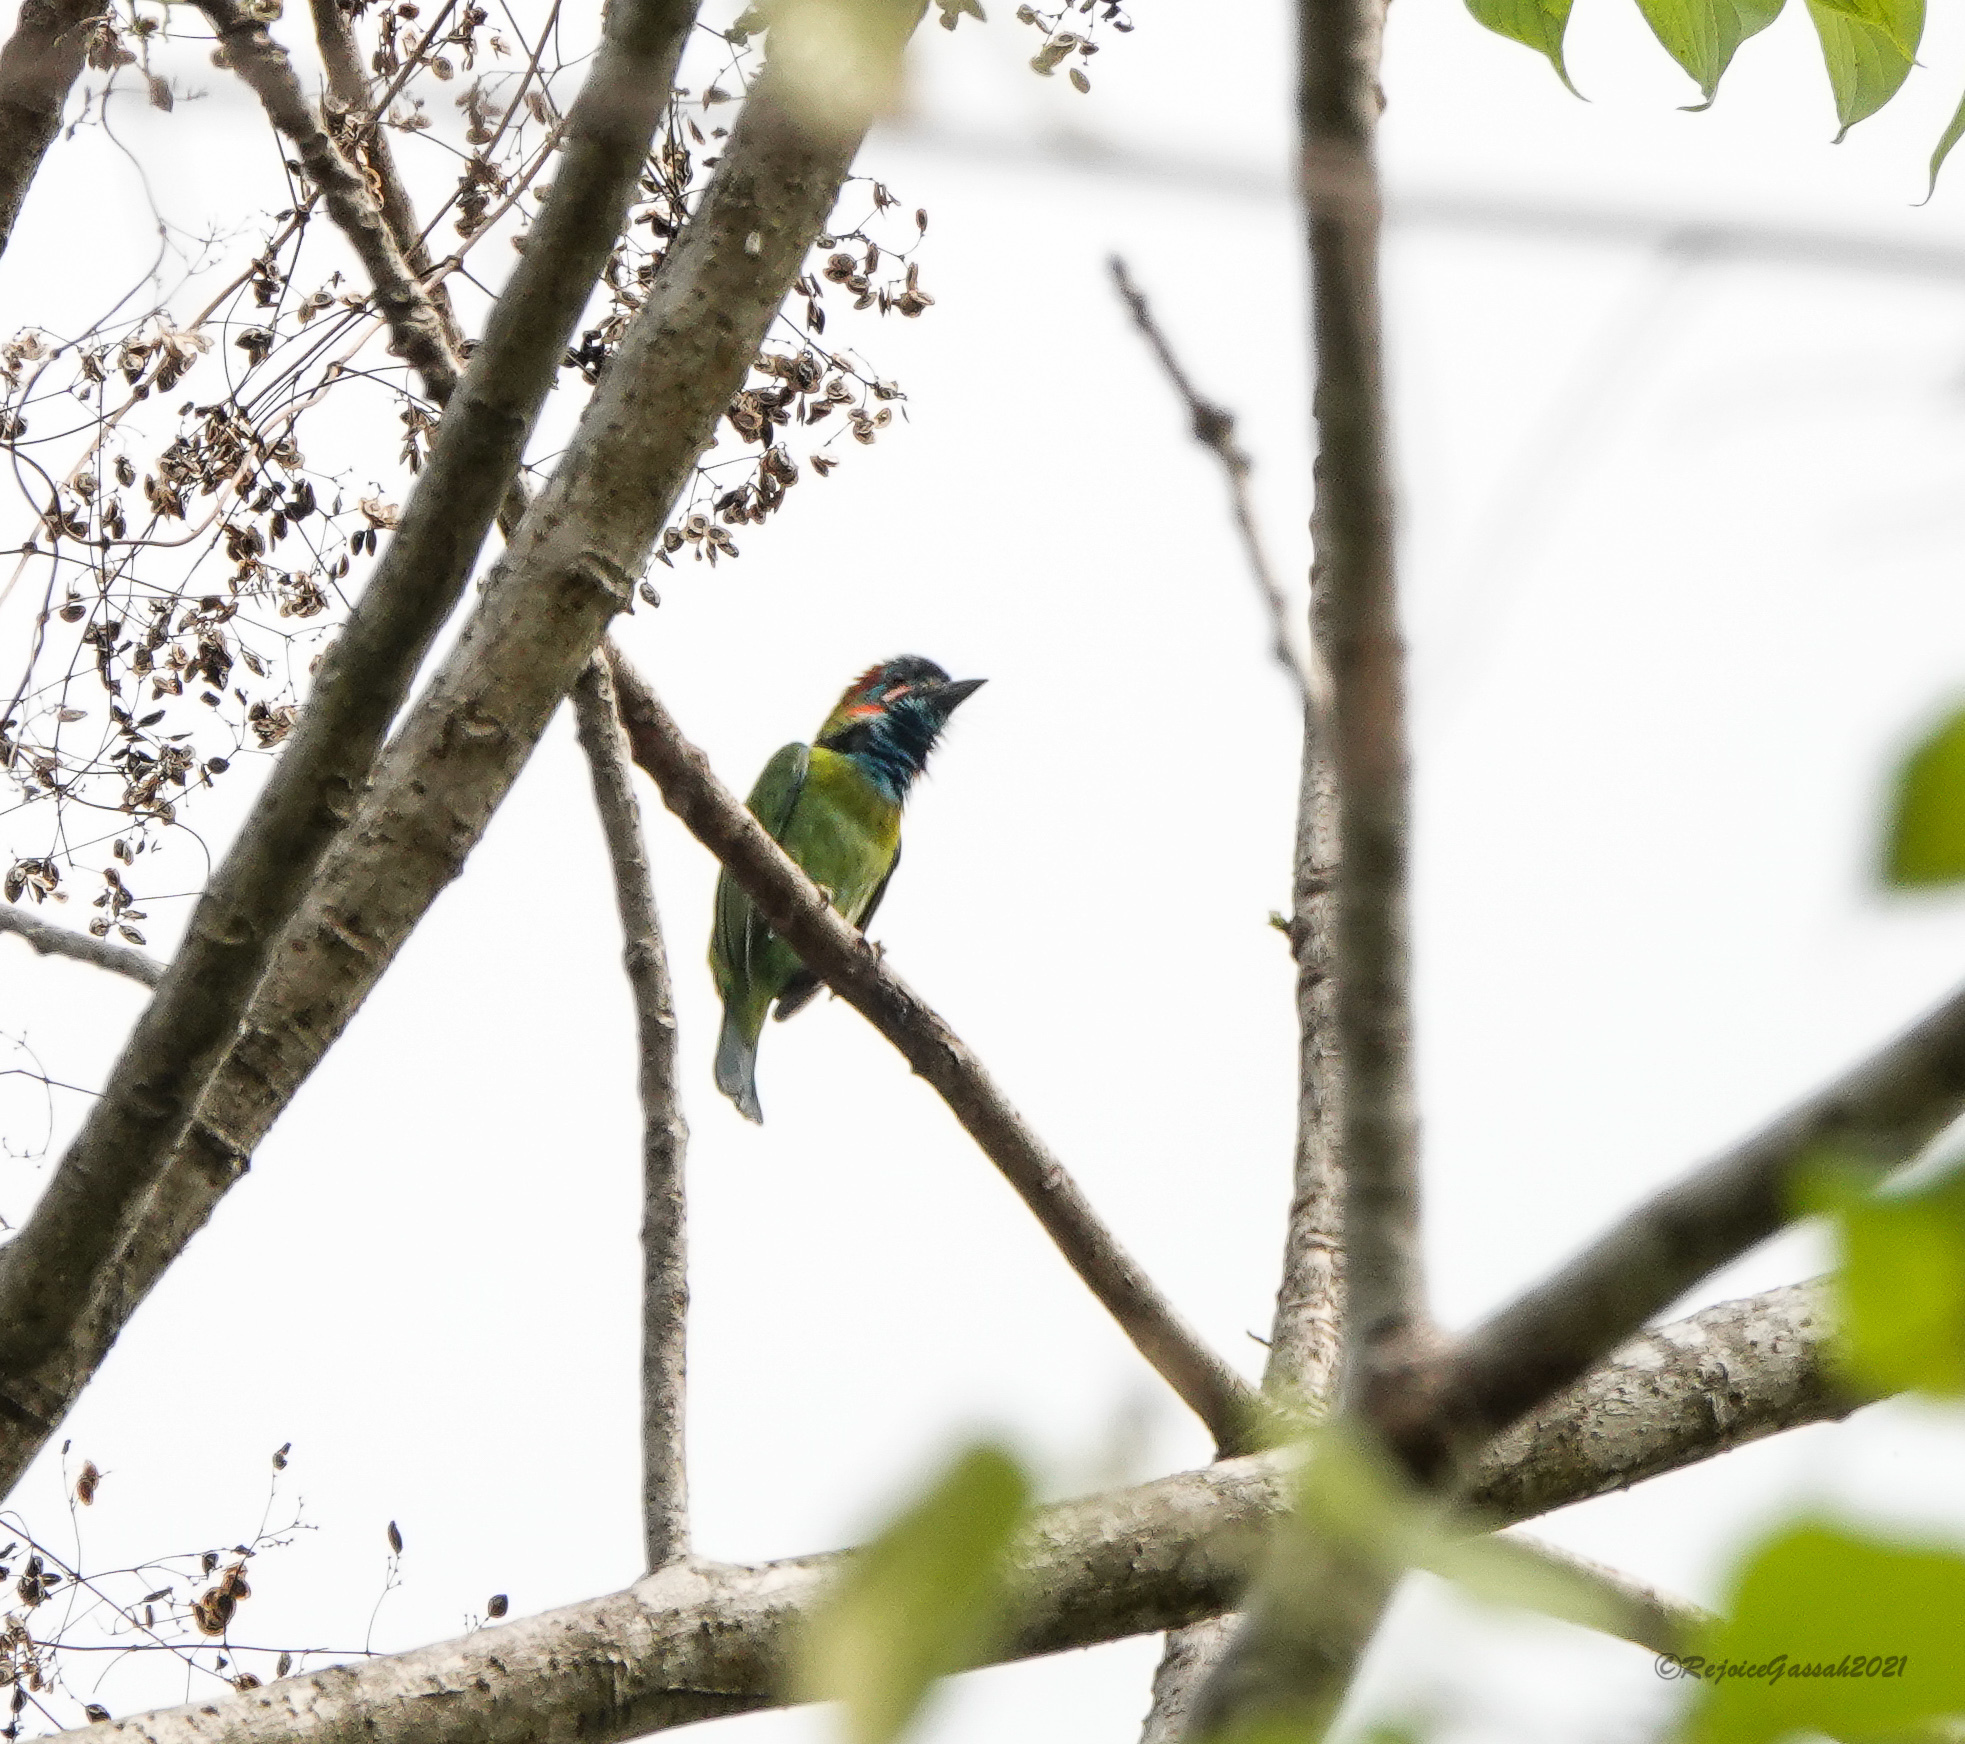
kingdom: Animalia
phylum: Chordata
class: Aves
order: Piciformes
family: Megalaimidae
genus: Psilopogon
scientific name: Psilopogon duvaucelii
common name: Blue-eared barbet
